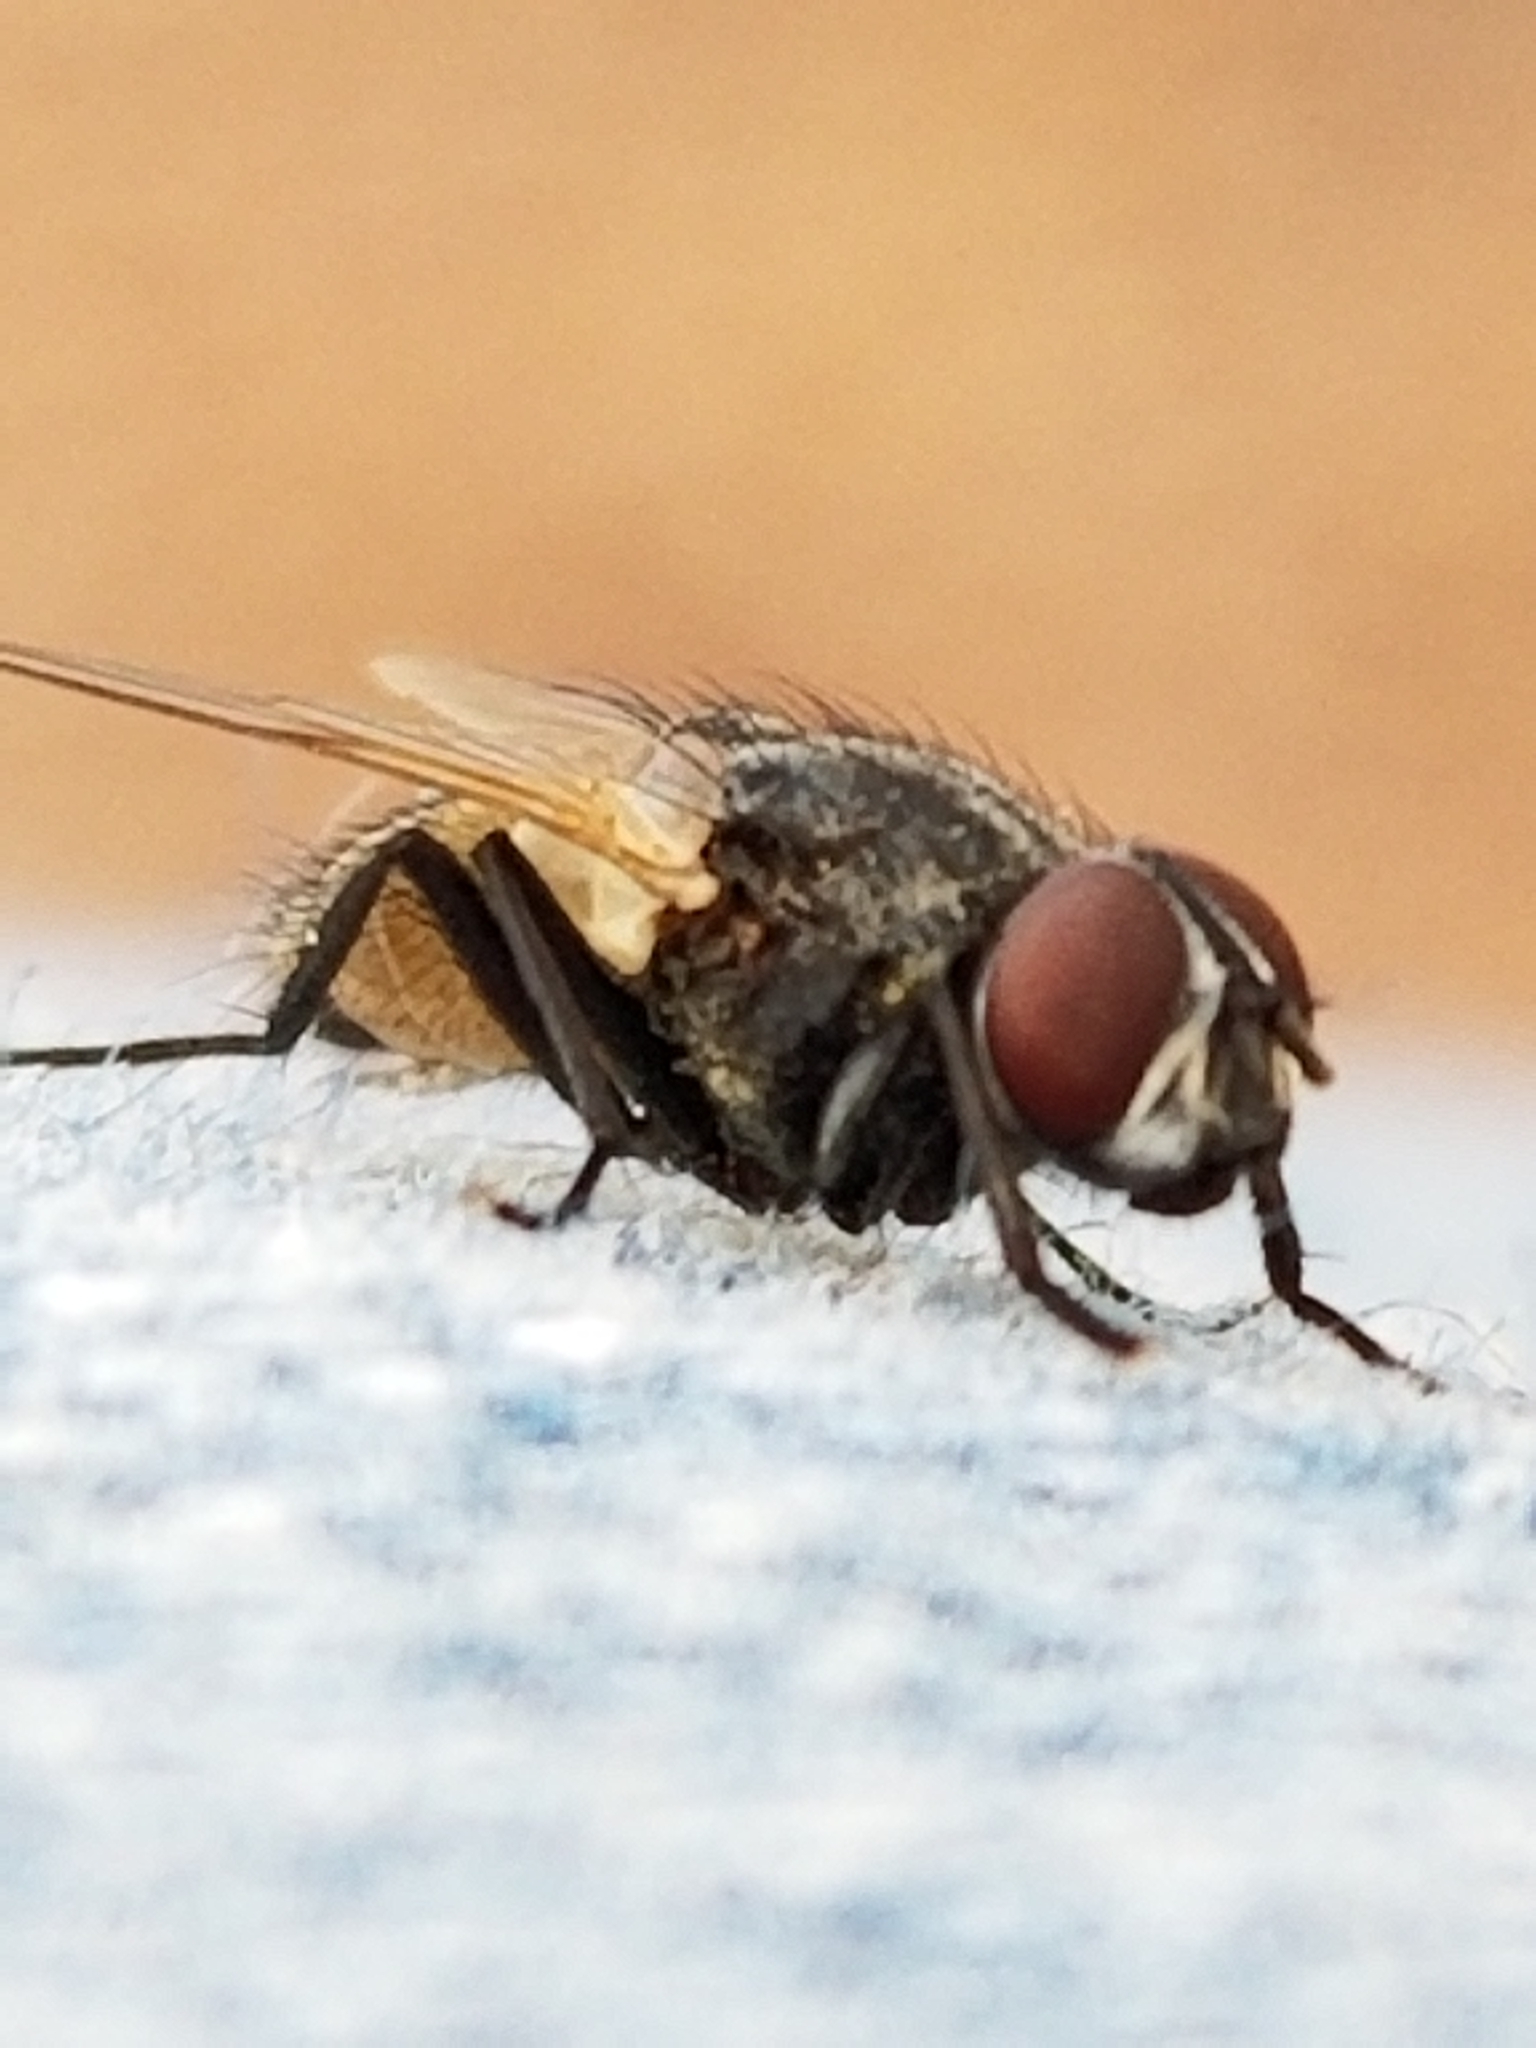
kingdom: Animalia
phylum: Arthropoda
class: Insecta
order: Diptera
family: Muscidae
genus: Musca
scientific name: Musca domestica
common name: House fly
